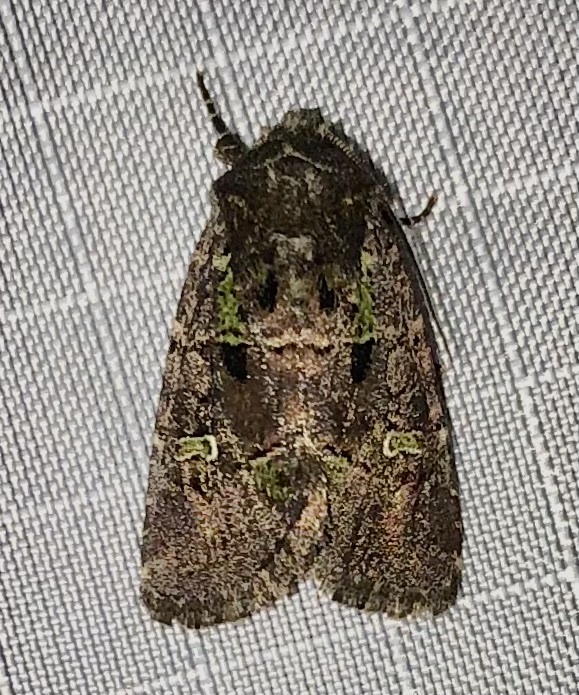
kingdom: Animalia
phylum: Arthropoda
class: Insecta
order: Lepidoptera
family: Noctuidae
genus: Lacinipolia
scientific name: Lacinipolia renigera
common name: Kidney-spotted minor
